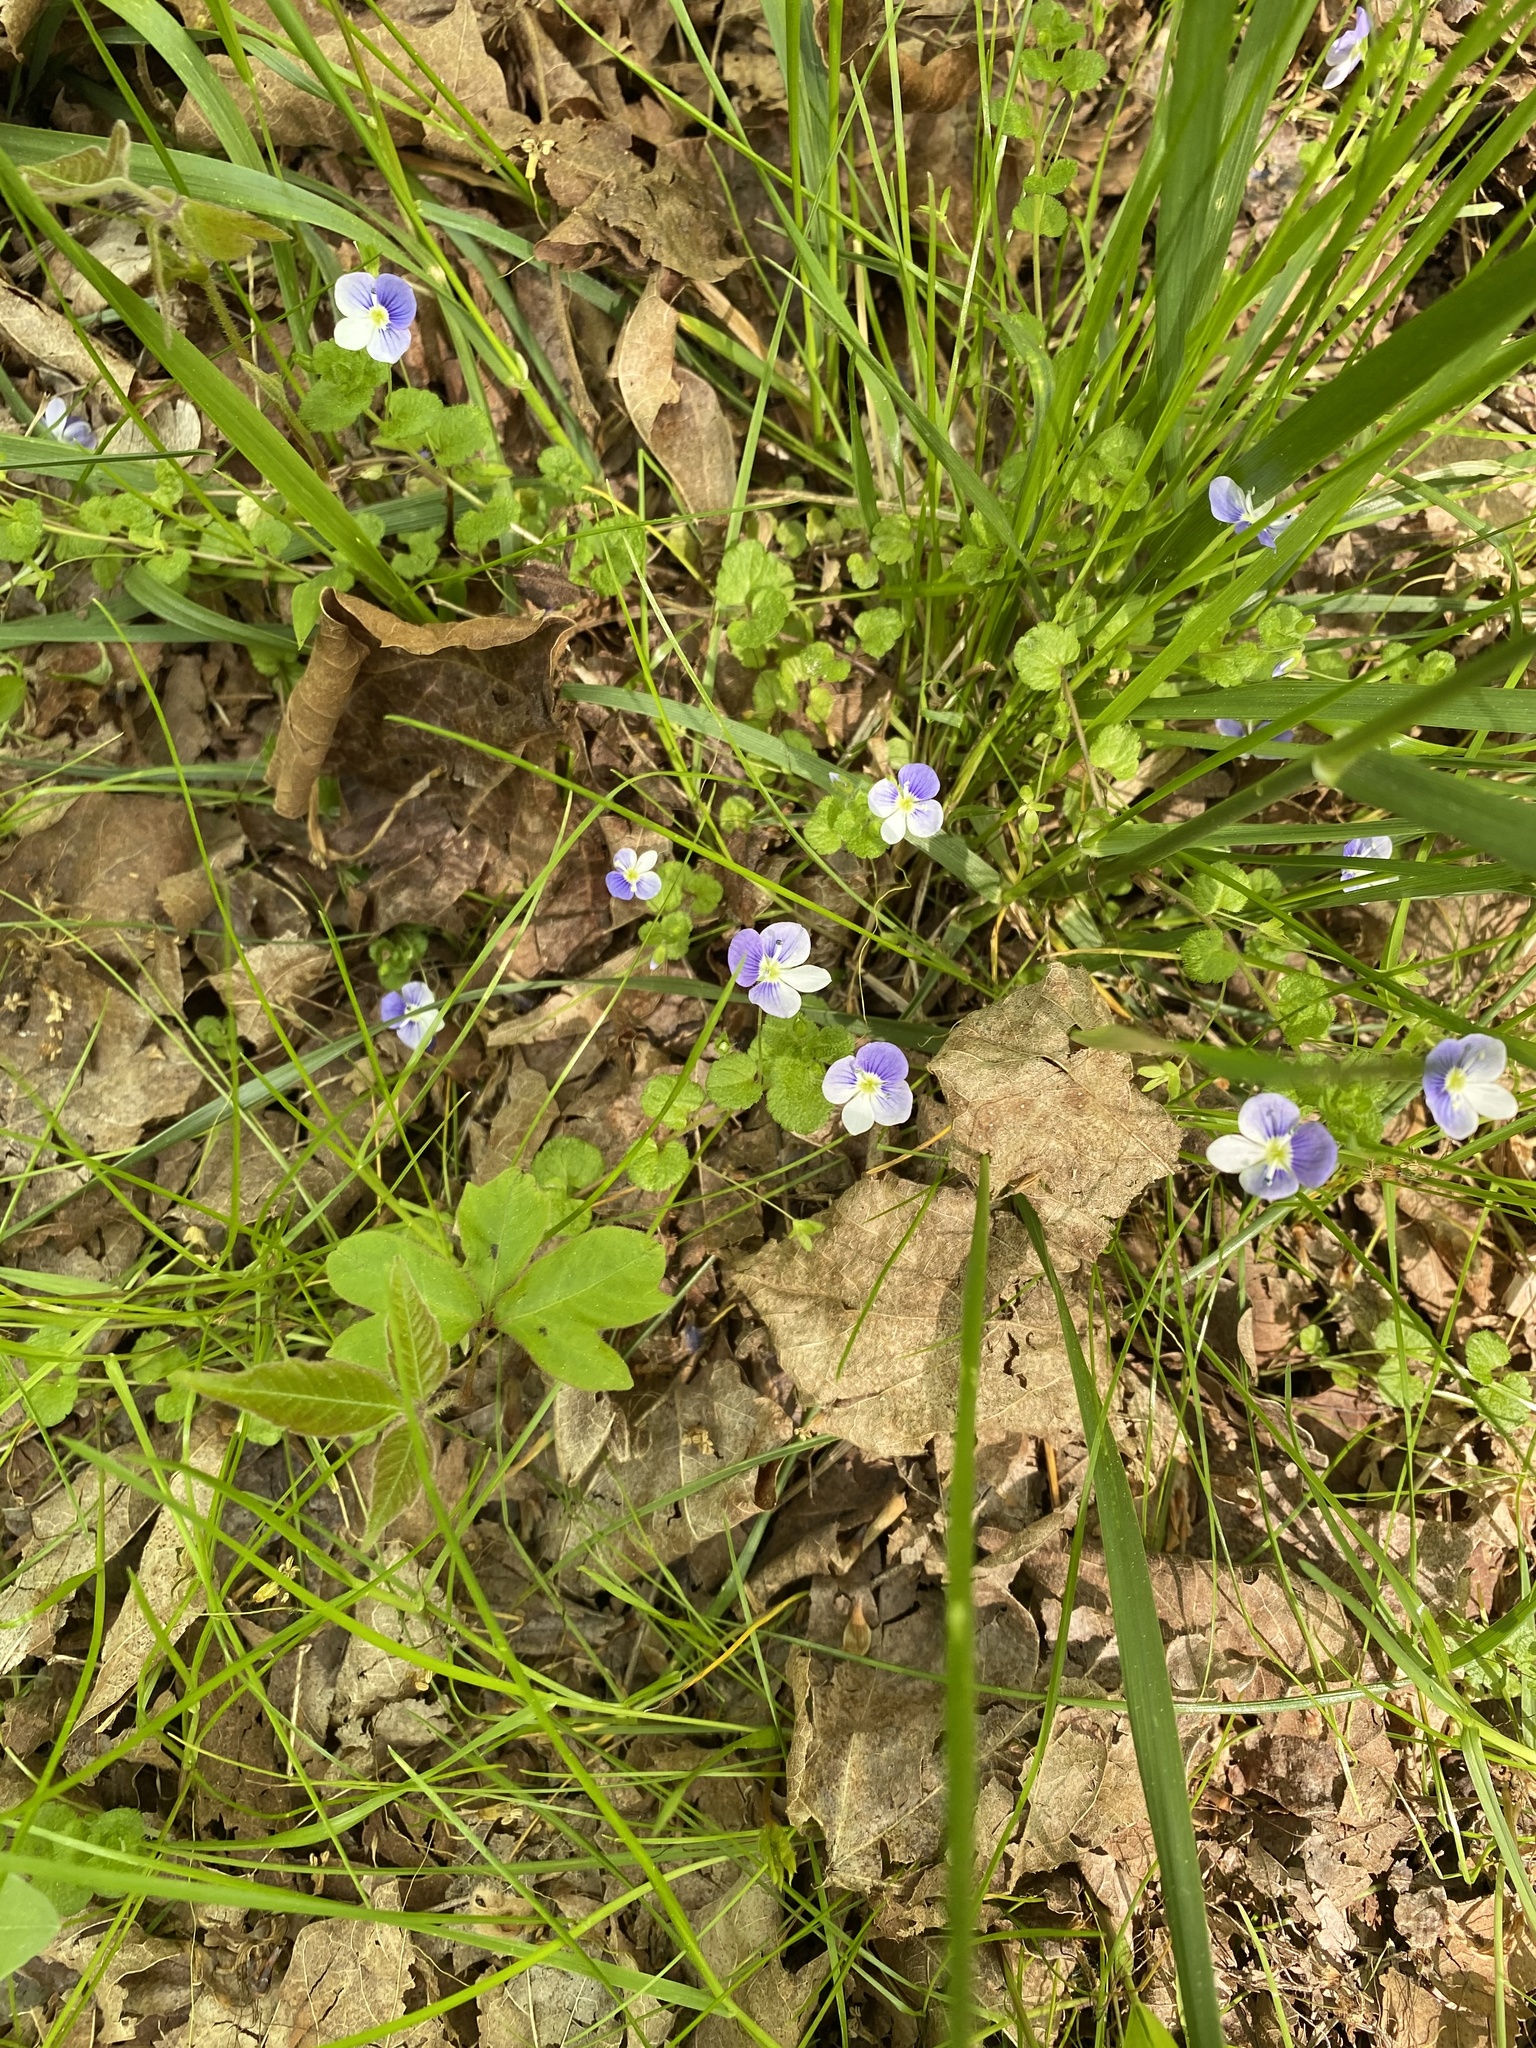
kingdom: Plantae
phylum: Tracheophyta
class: Magnoliopsida
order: Lamiales
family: Plantaginaceae
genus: Veronica
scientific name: Veronica filiformis
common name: Slender speedwell
